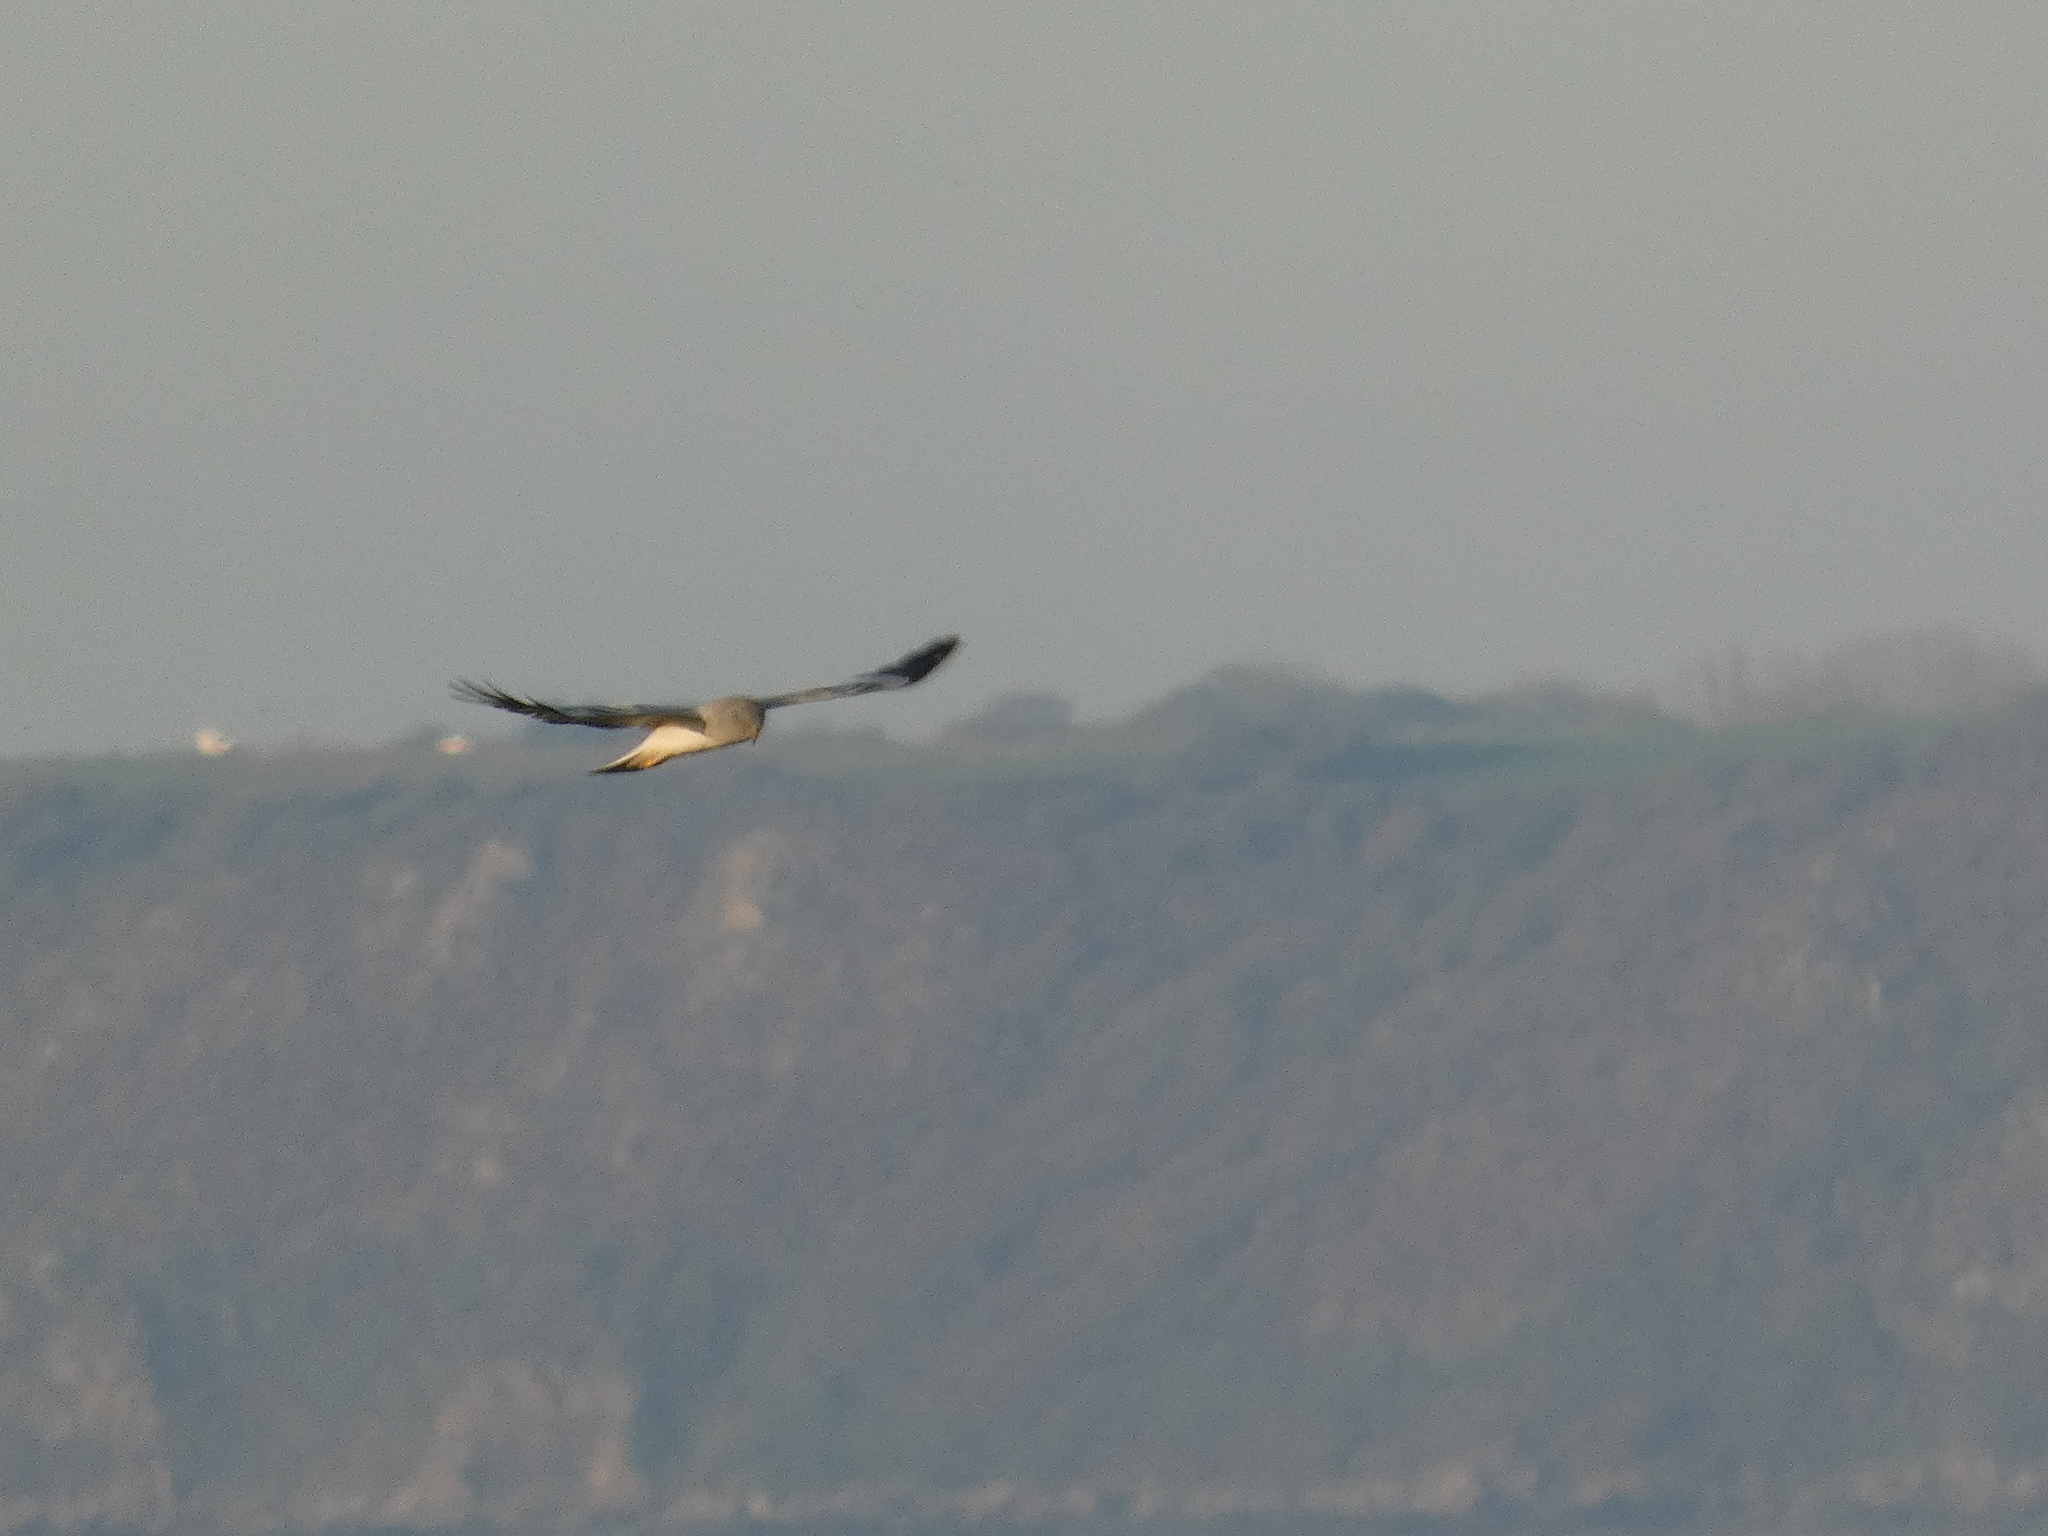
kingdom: Animalia
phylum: Chordata
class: Aves
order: Accipitriformes
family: Accipitridae
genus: Circus
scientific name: Circus cyaneus
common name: Hen harrier
